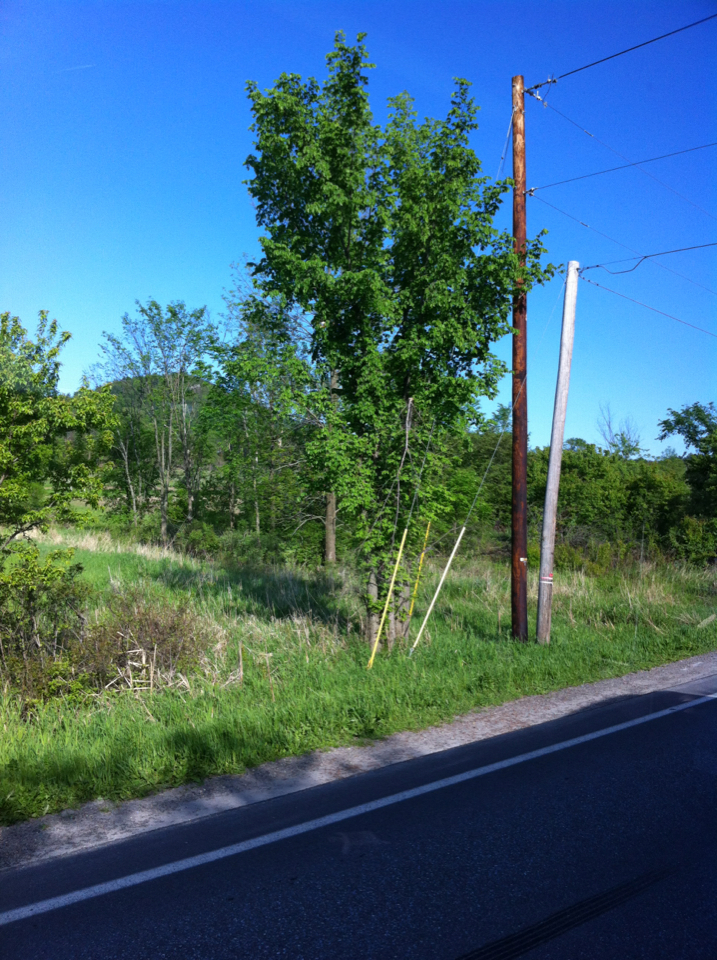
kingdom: Plantae
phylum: Tracheophyta
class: Magnoliopsida
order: Rosales
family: Ulmaceae
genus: Ulmus
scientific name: Ulmus americana
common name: American elm
